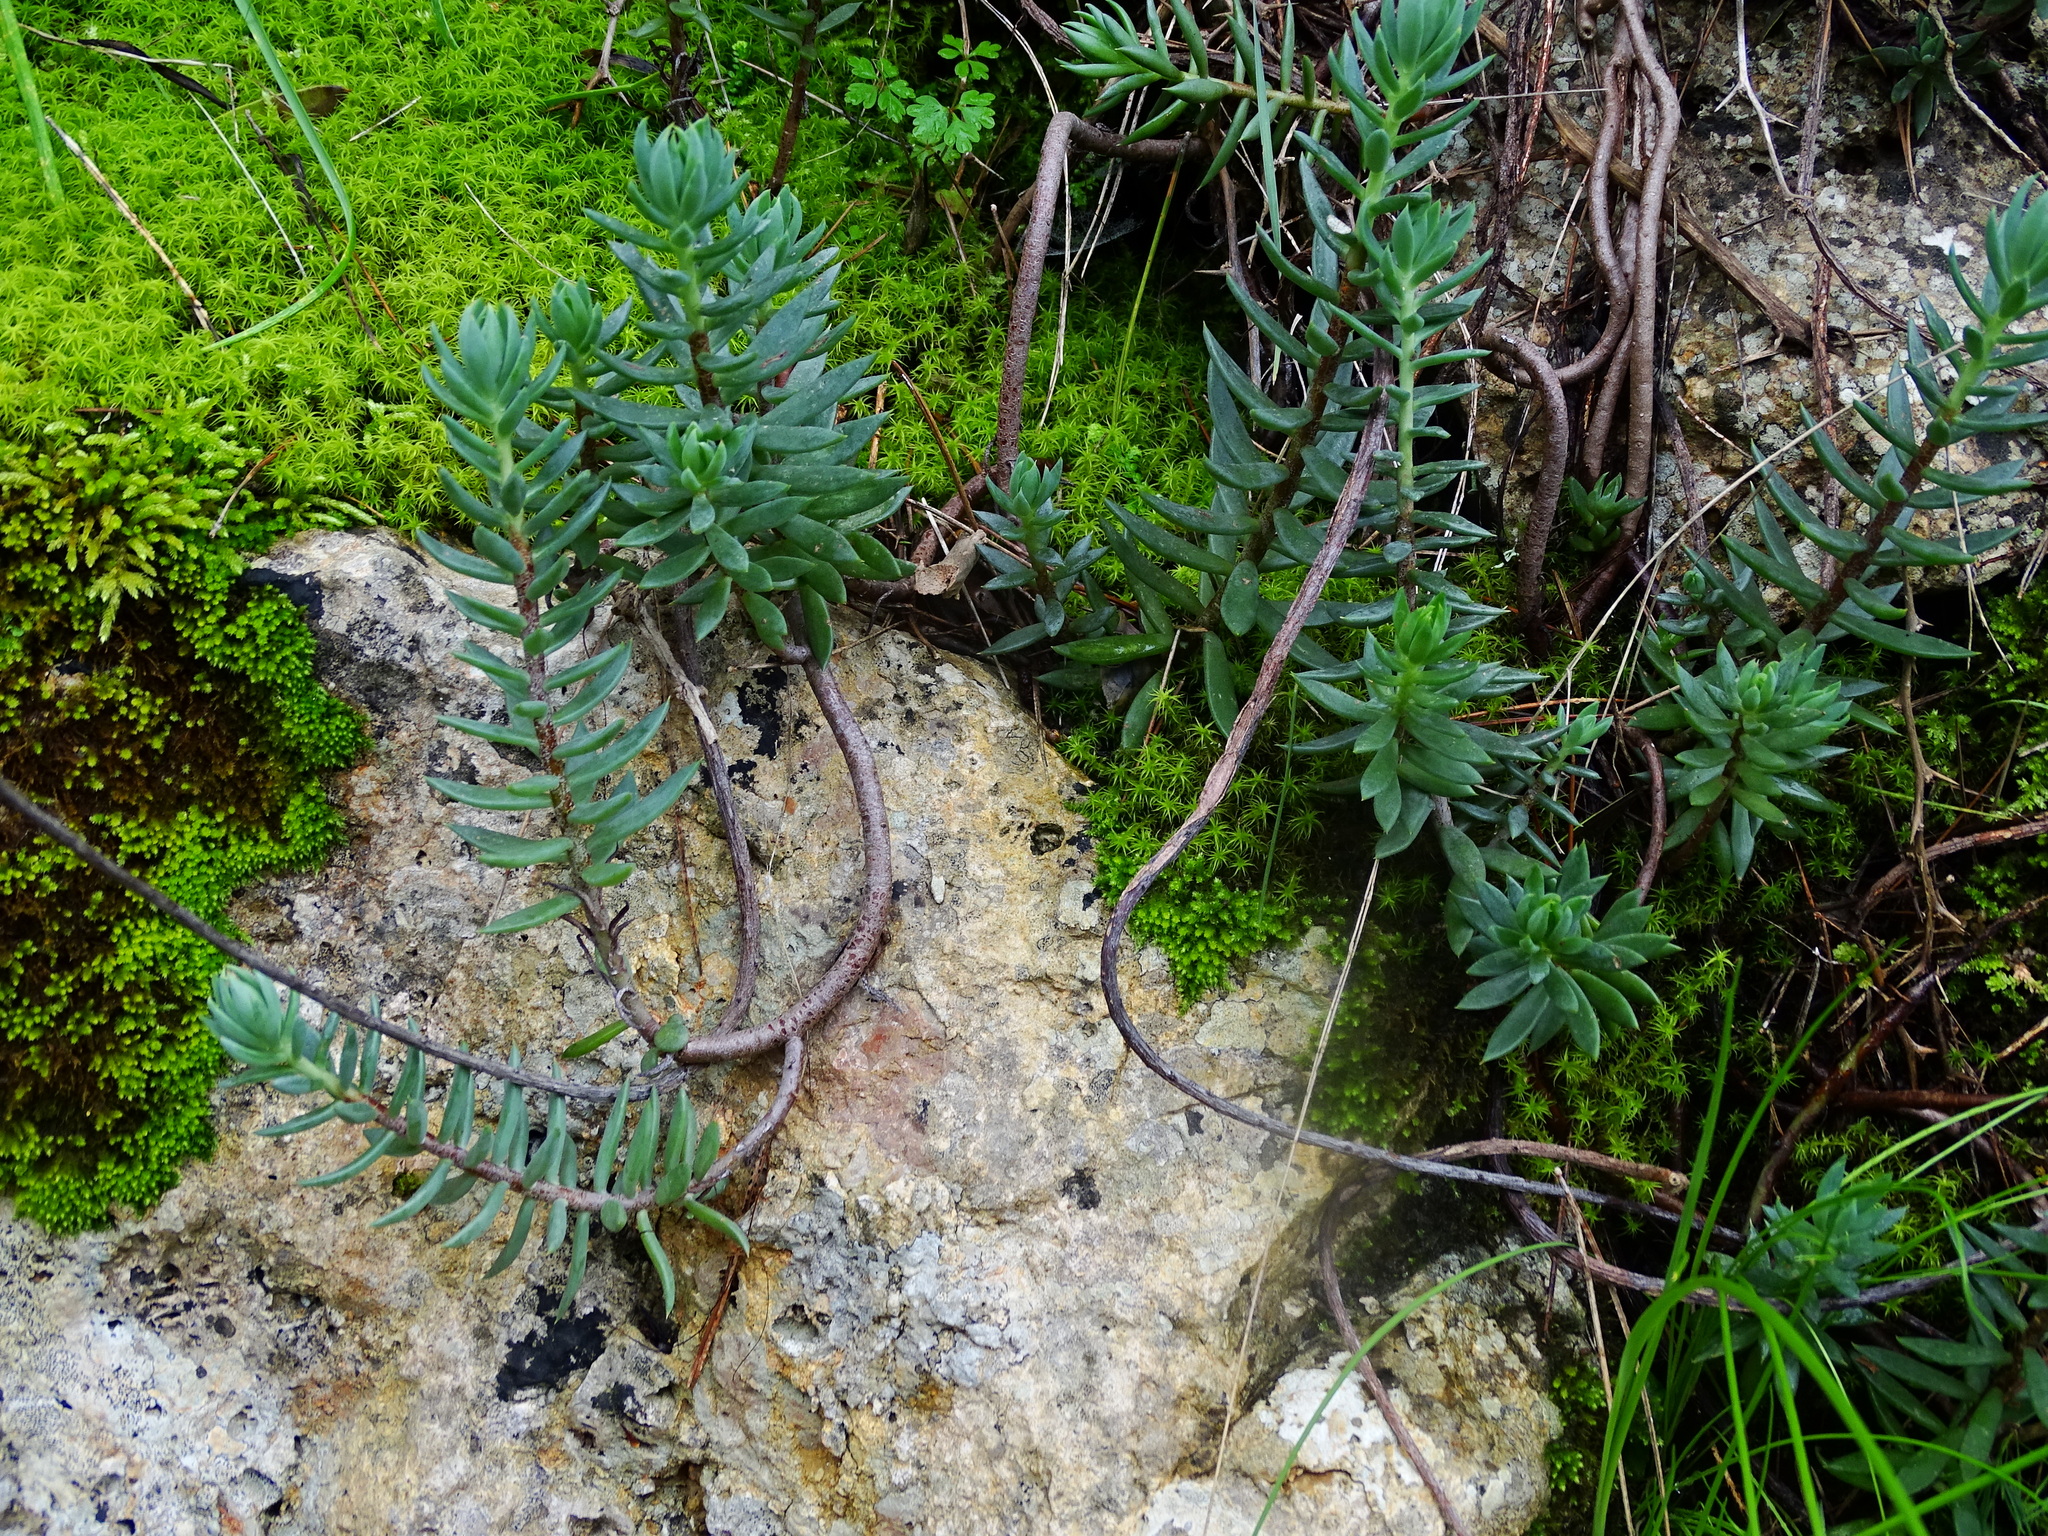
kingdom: Plantae
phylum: Tracheophyta
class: Magnoliopsida
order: Saxifragales
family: Crassulaceae
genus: Petrosedum
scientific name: Petrosedum sediforme
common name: Pale stonecrop
